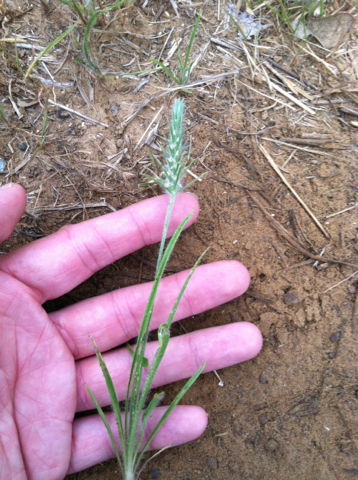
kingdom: Plantae
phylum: Tracheophyta
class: Magnoliopsida
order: Lamiales
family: Plantaginaceae
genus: Plantago
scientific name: Plantago aristata
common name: Bracted plantain
